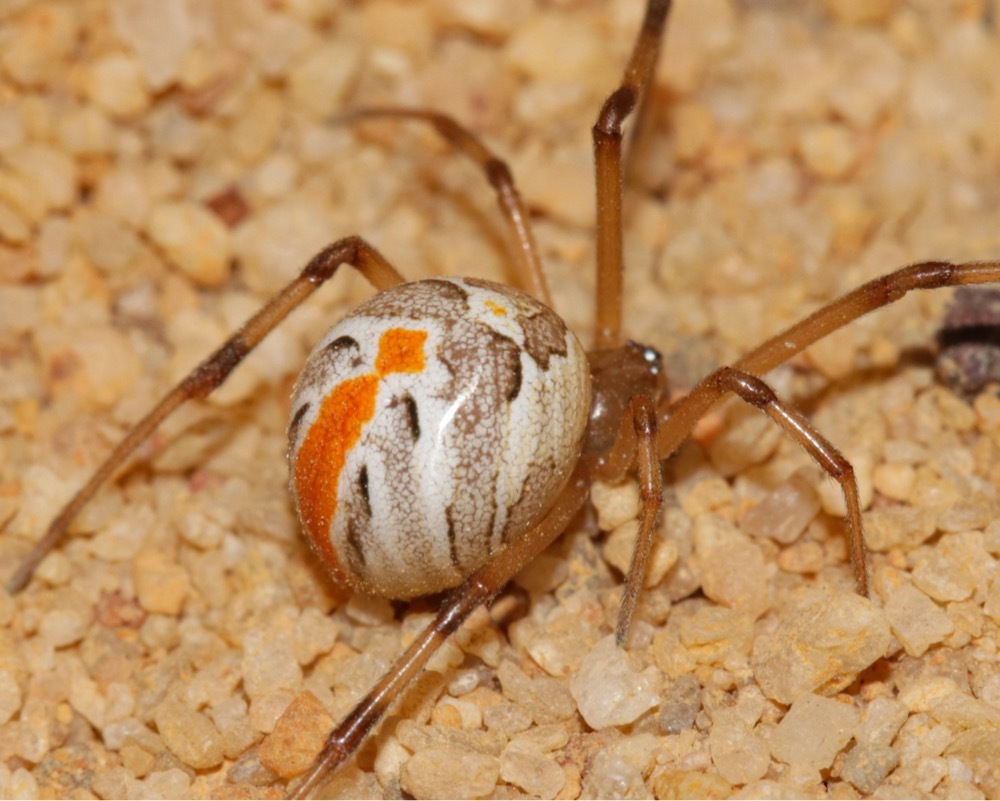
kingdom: Animalia
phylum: Arthropoda
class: Arachnida
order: Araneae
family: Theridiidae
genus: Latrodectus
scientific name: Latrodectus hasselti
